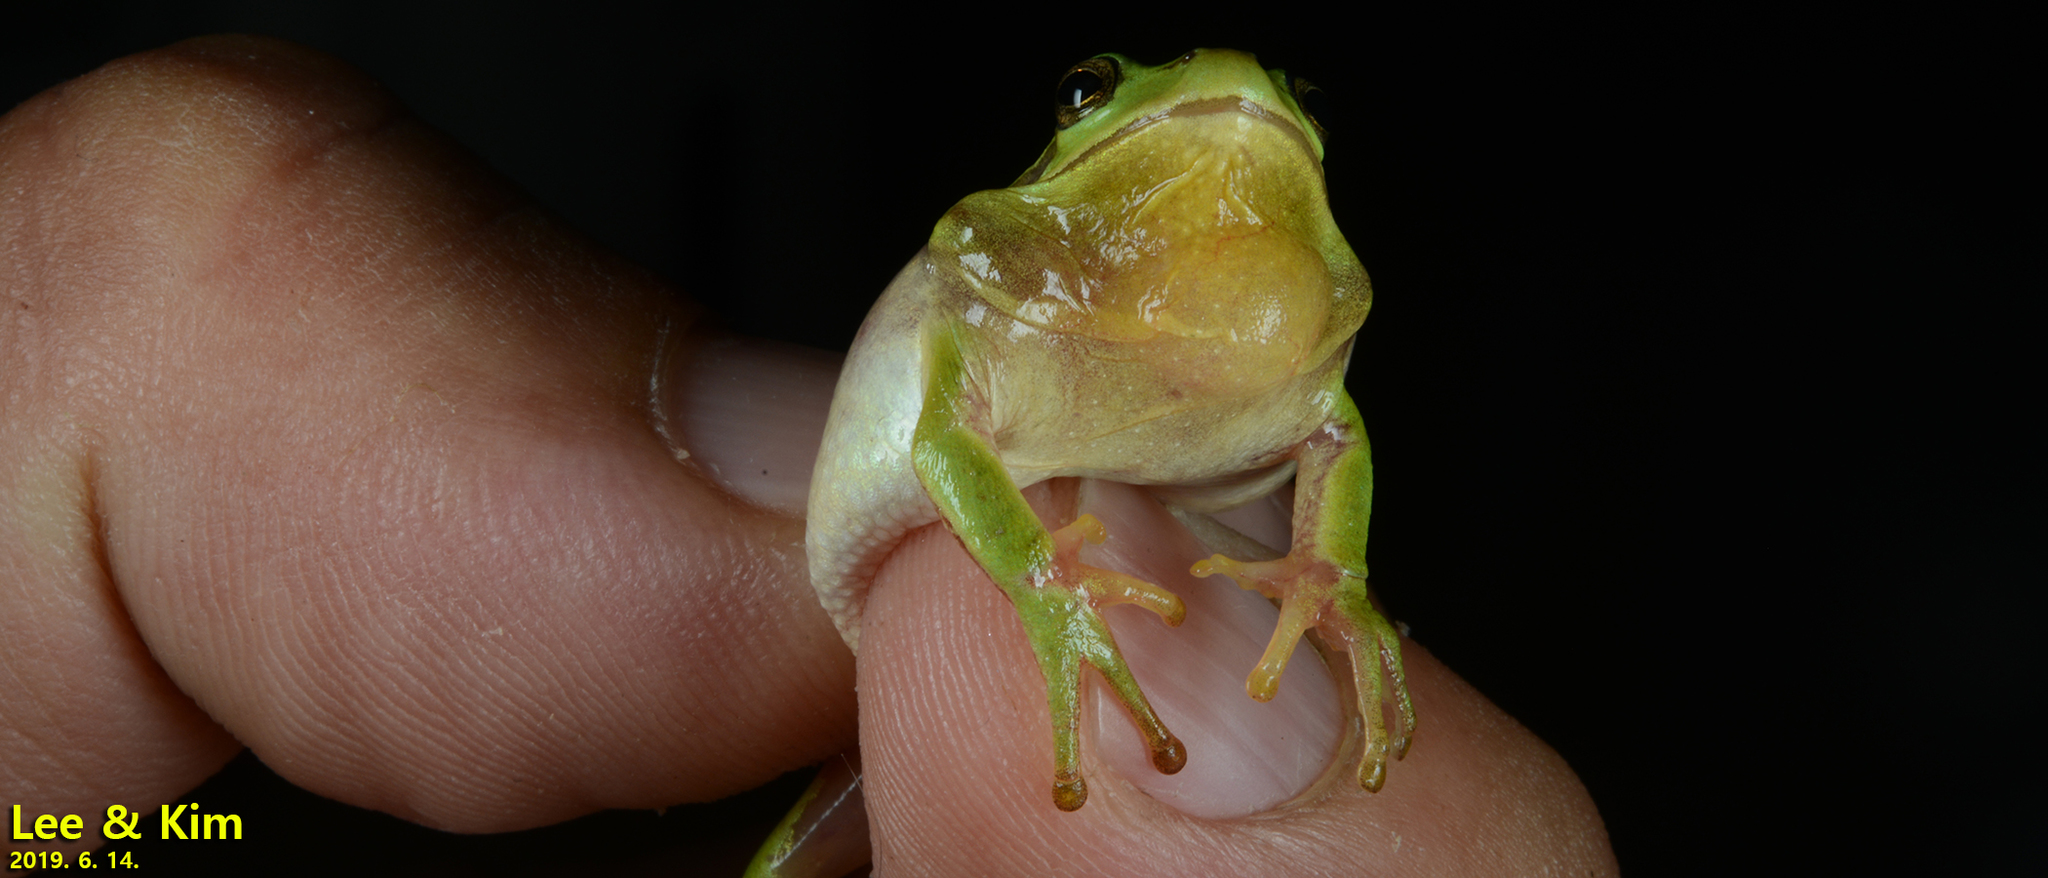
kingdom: Animalia
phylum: Chordata
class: Amphibia
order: Anura
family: Hylidae
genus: Dryophytes
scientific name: Dryophytes immaculatus
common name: North china treefrog
